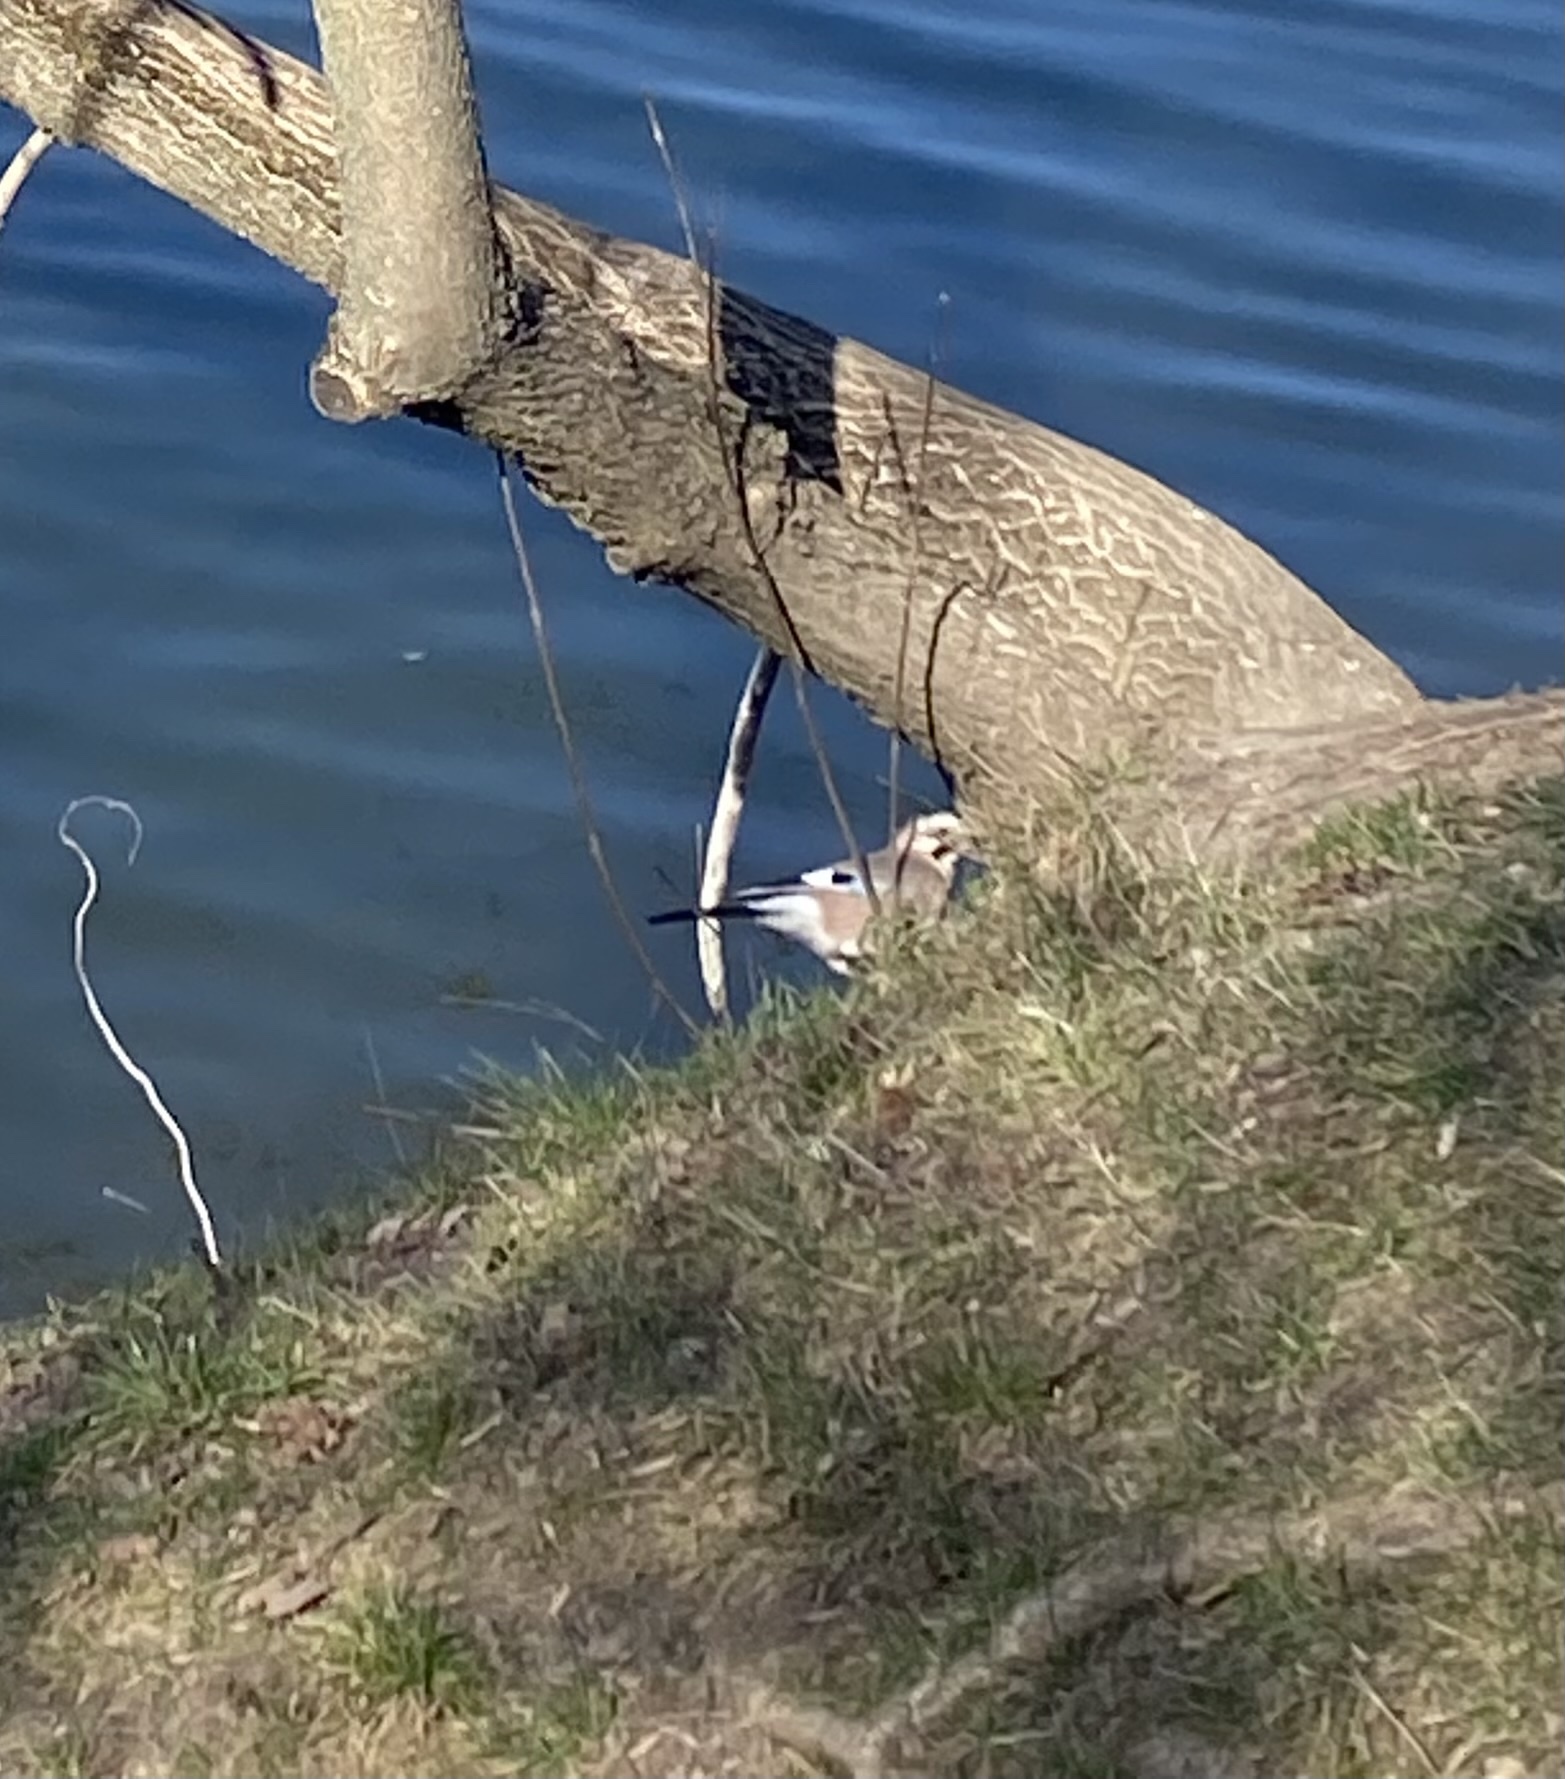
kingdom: Animalia
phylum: Chordata
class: Aves
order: Passeriformes
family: Corvidae
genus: Garrulus
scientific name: Garrulus glandarius
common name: Eurasian jay
